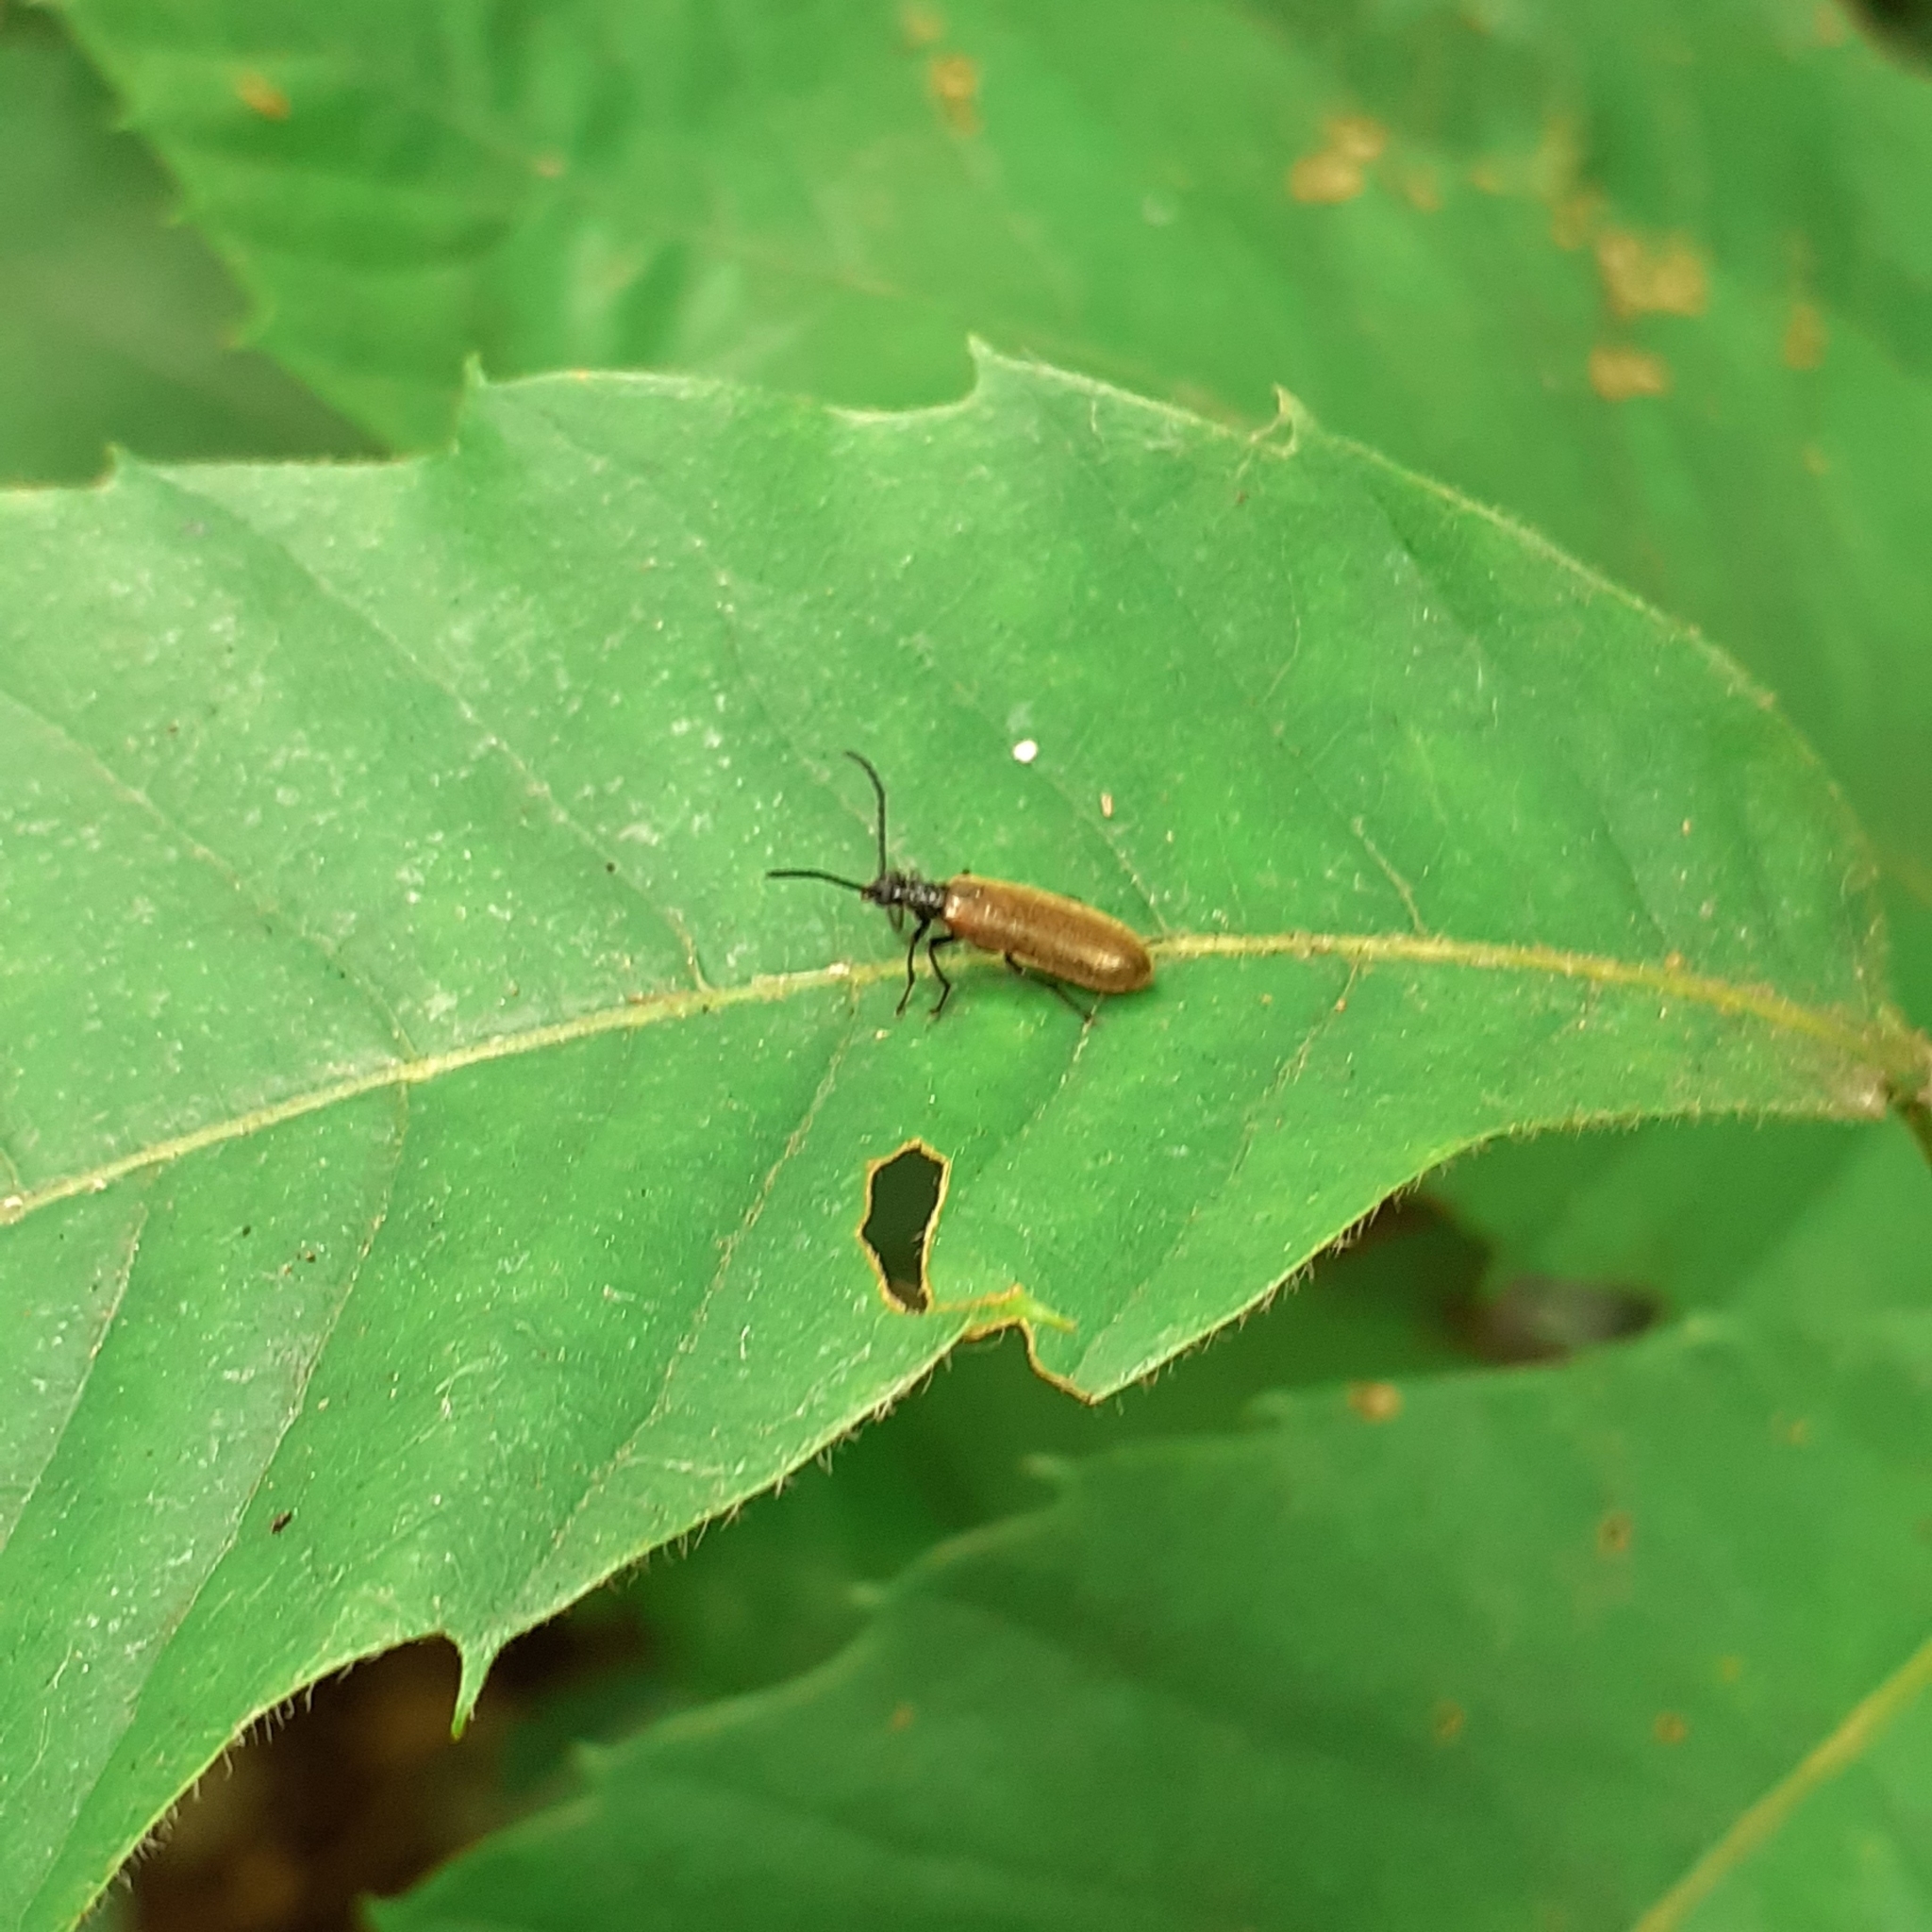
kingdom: Animalia
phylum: Arthropoda
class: Insecta
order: Coleoptera
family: Tenebrionidae
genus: Lagria
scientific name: Lagria hirta
